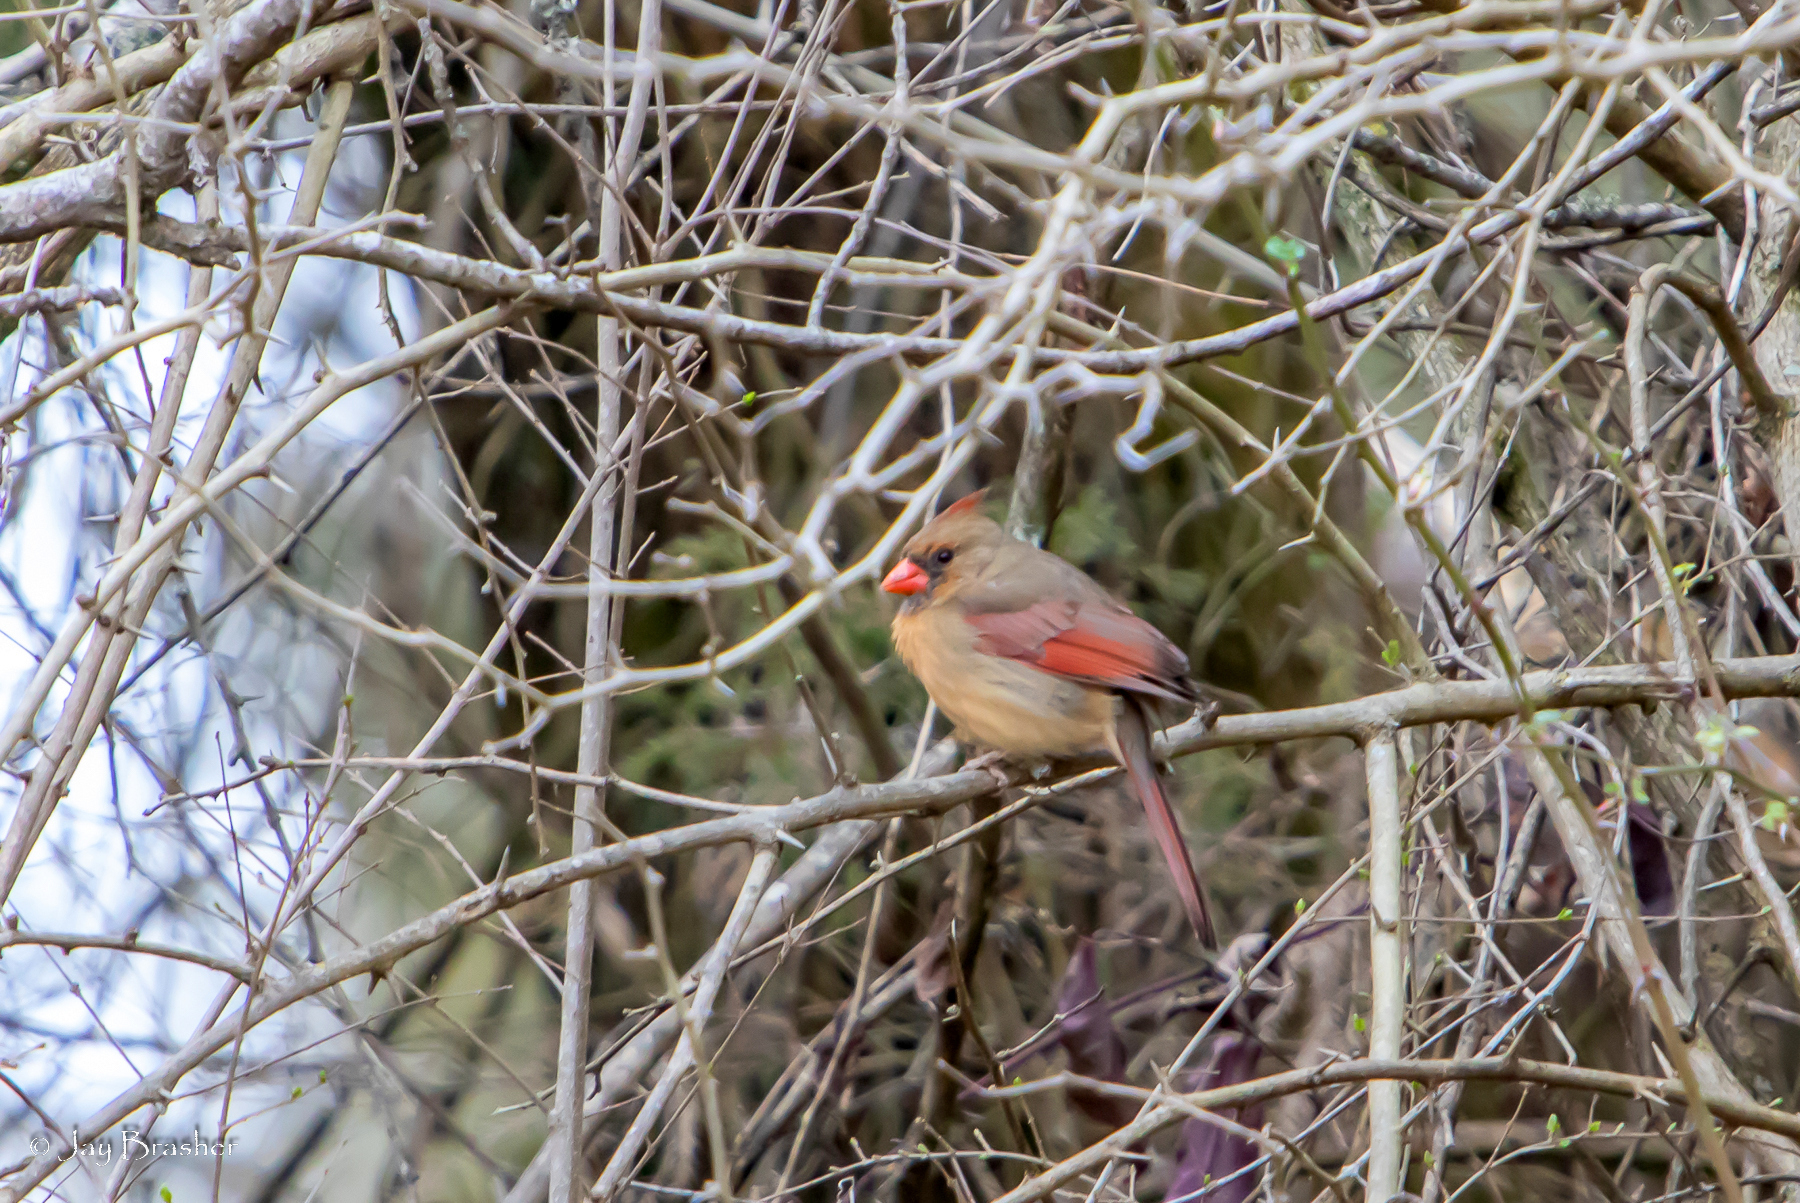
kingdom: Animalia
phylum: Chordata
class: Aves
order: Passeriformes
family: Cardinalidae
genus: Cardinalis
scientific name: Cardinalis cardinalis
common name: Northern cardinal
